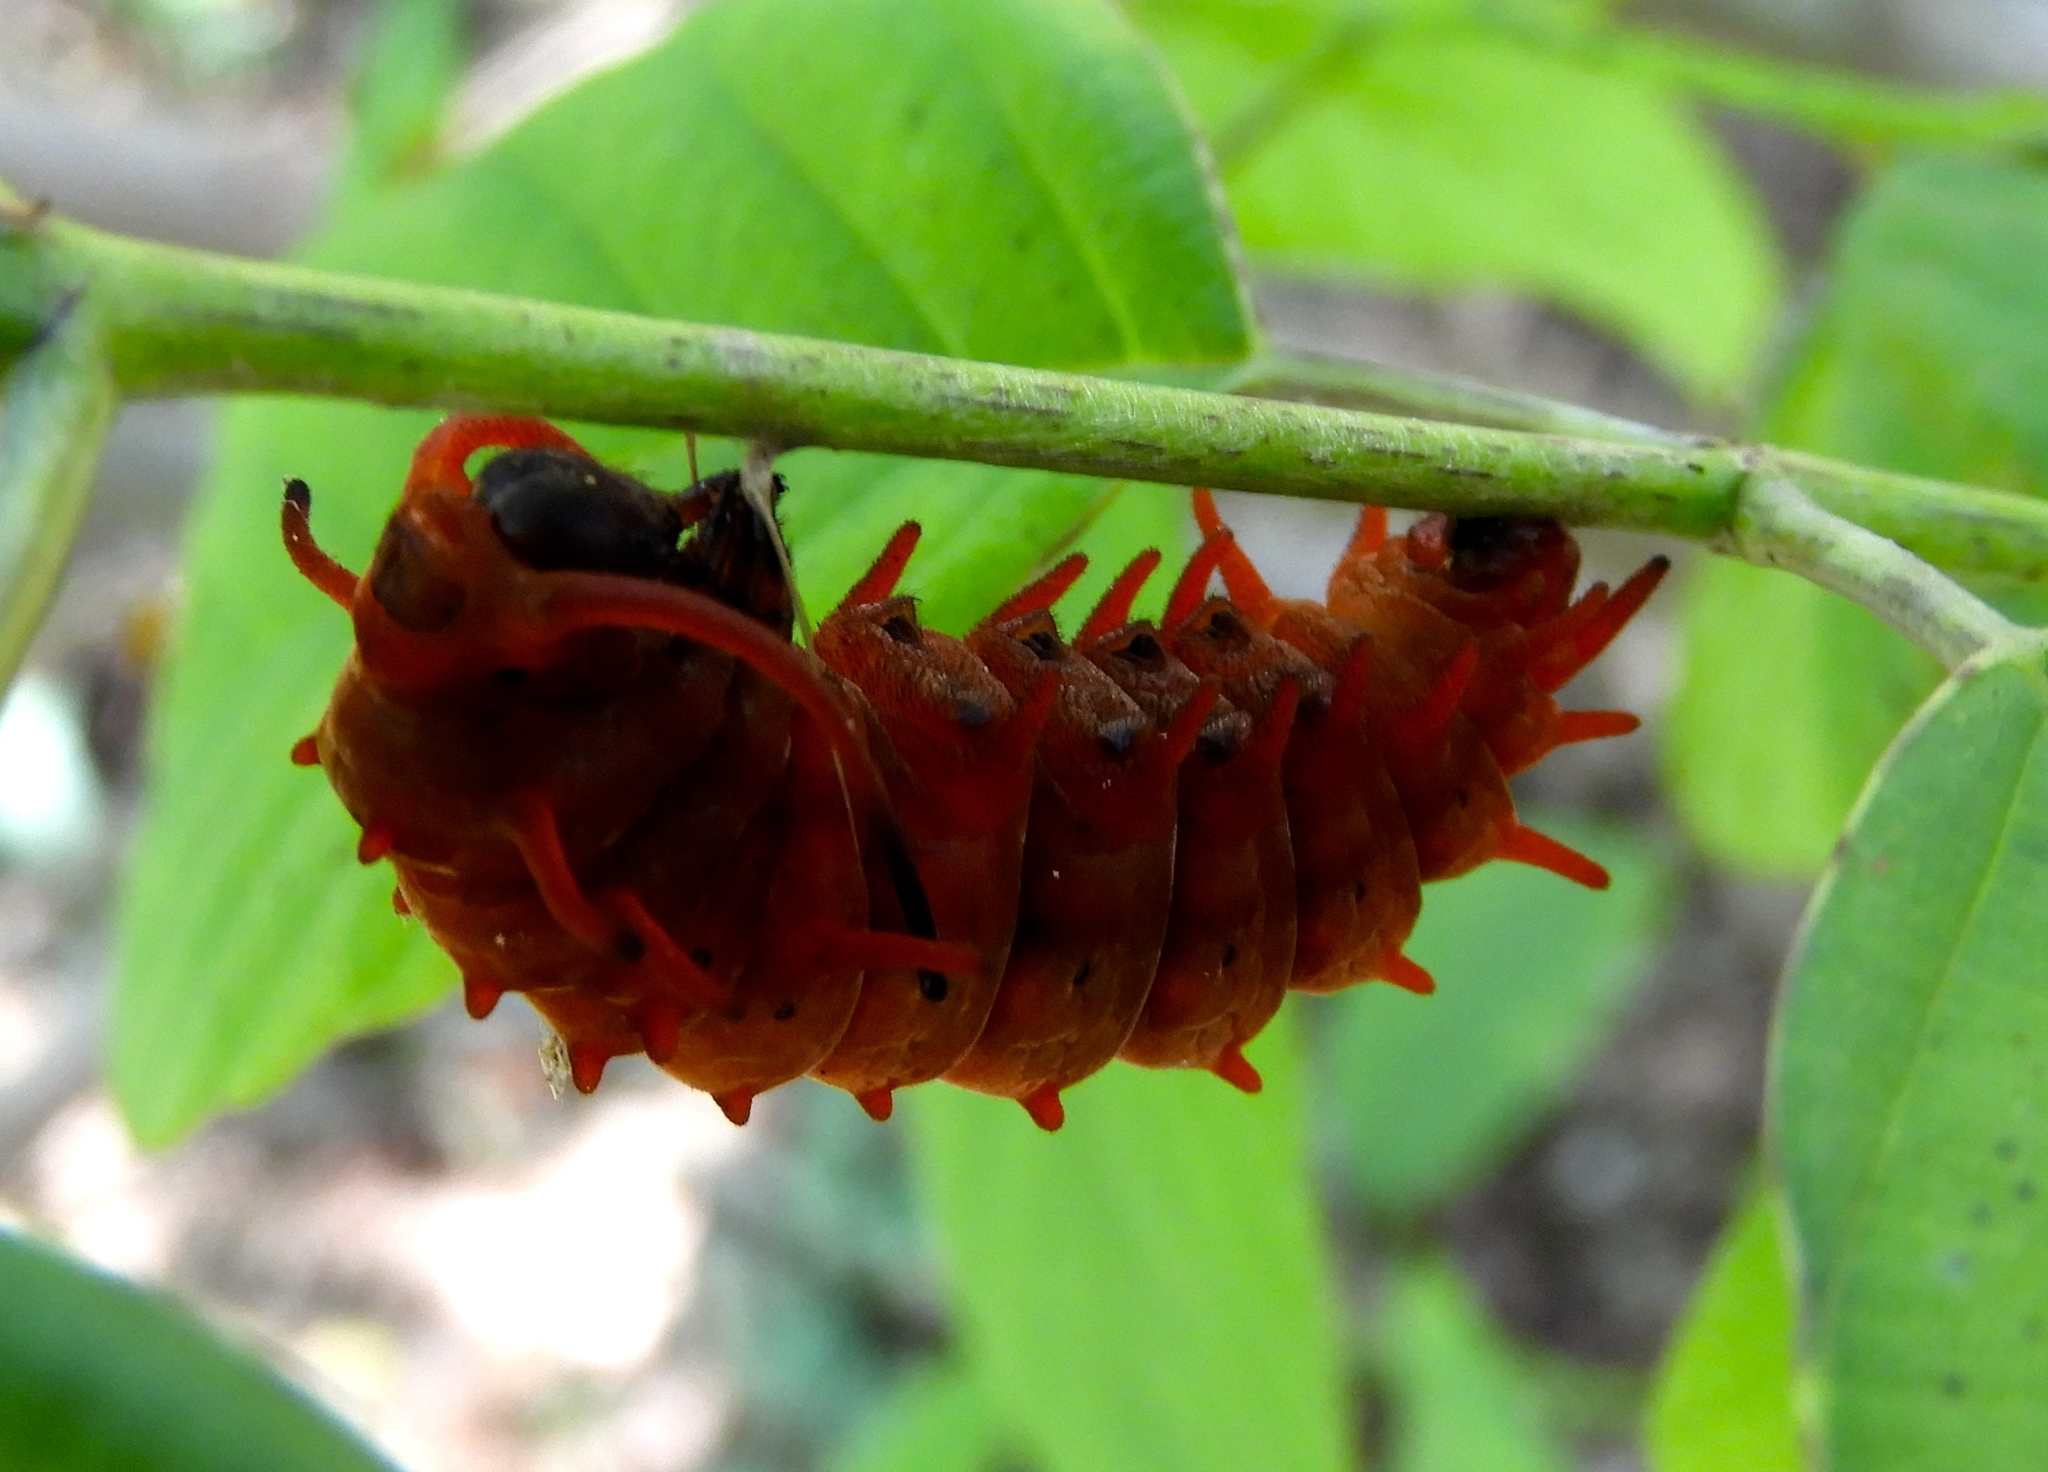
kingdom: Animalia
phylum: Arthropoda
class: Insecta
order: Lepidoptera
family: Papilionidae
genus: Battus
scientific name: Battus philenor
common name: Pipevine swallowtail
